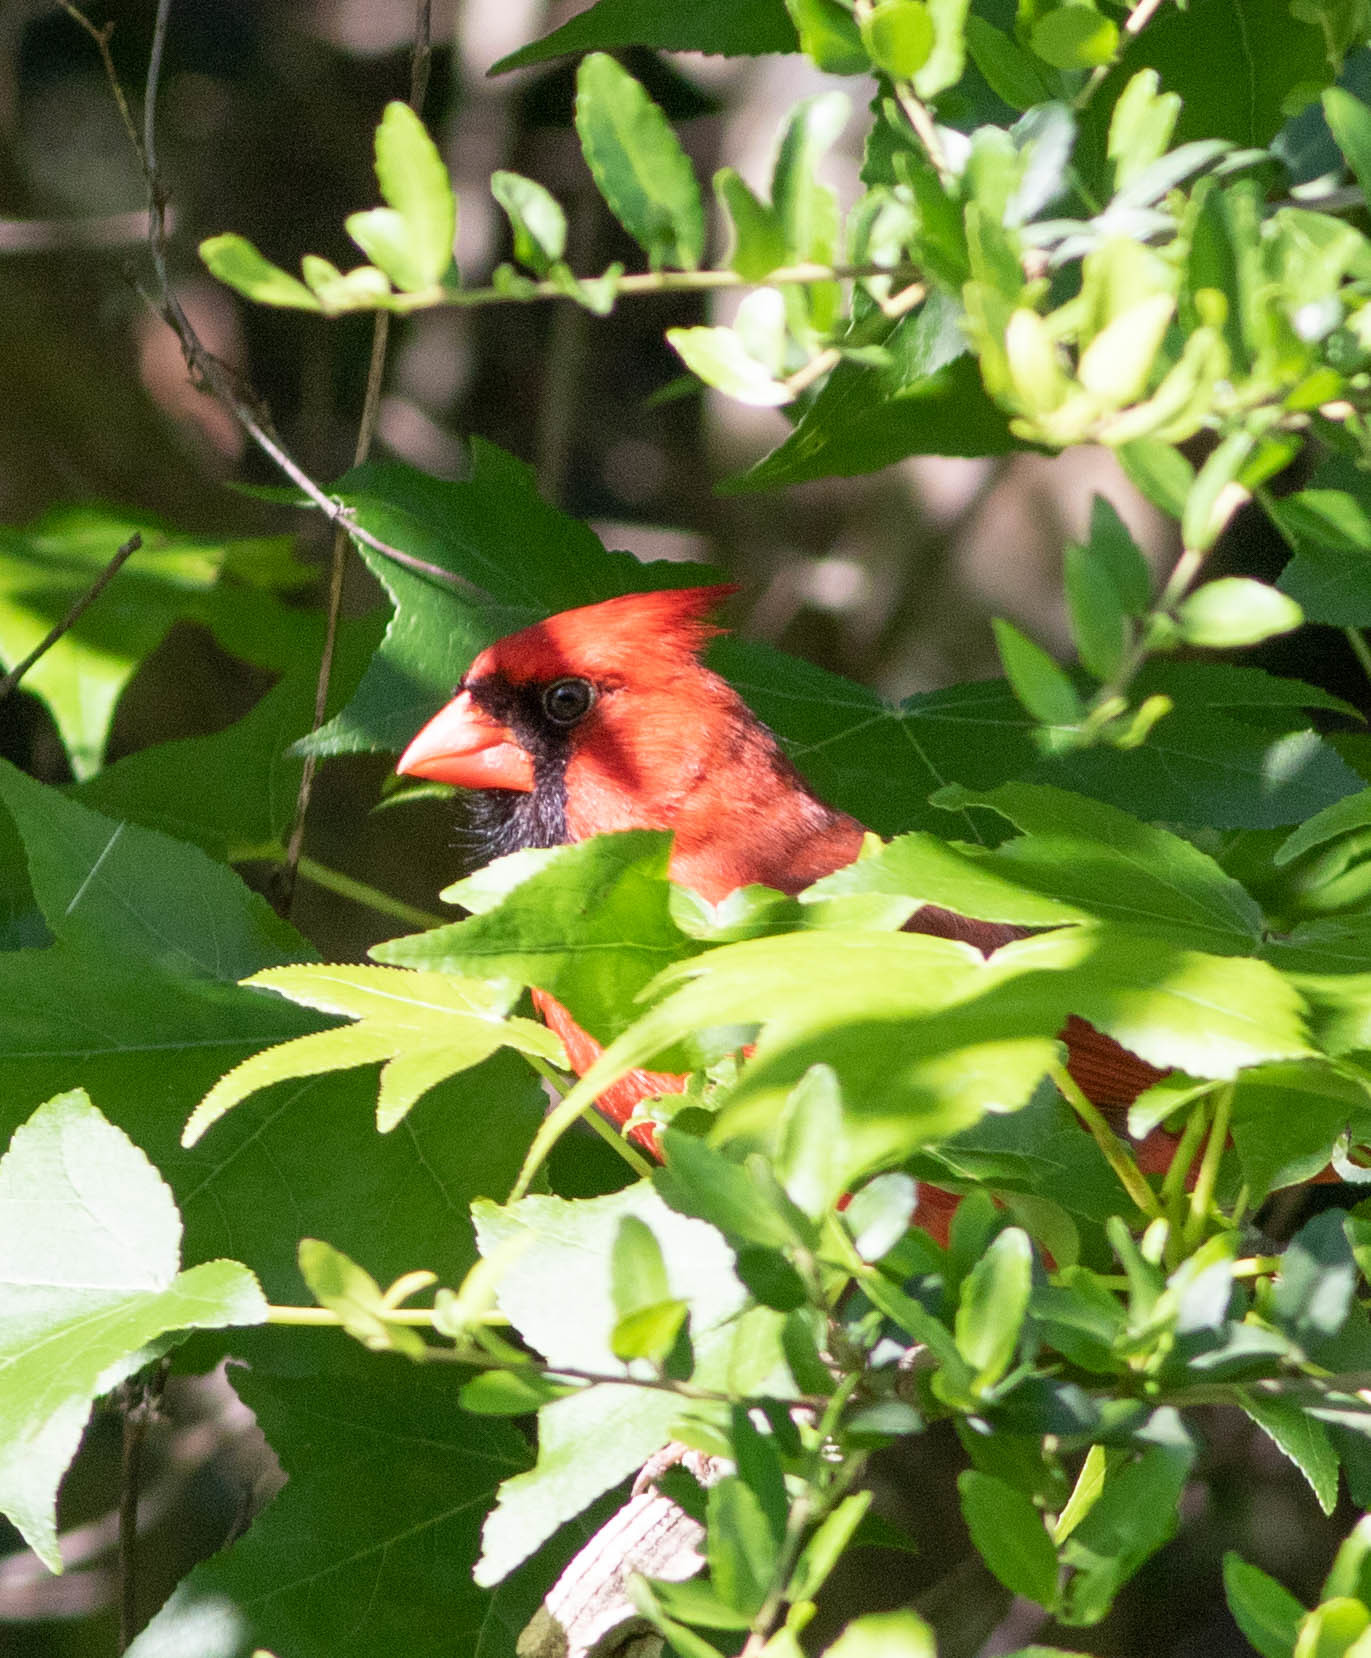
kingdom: Animalia
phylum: Chordata
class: Aves
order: Passeriformes
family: Cardinalidae
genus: Cardinalis
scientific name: Cardinalis cardinalis
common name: Northern cardinal
